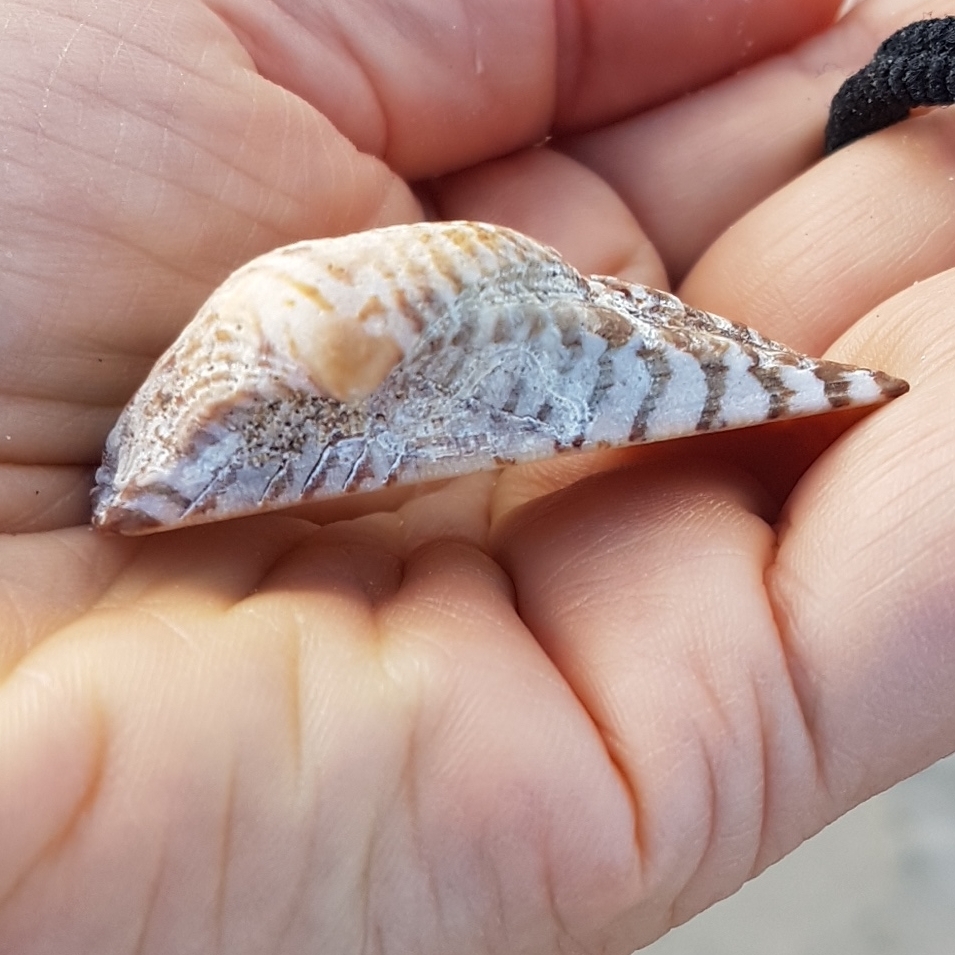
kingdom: Animalia
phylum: Mollusca
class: Bivalvia
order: Arcida
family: Arcidae
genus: Arca
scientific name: Arca noae
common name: Noah's arch
